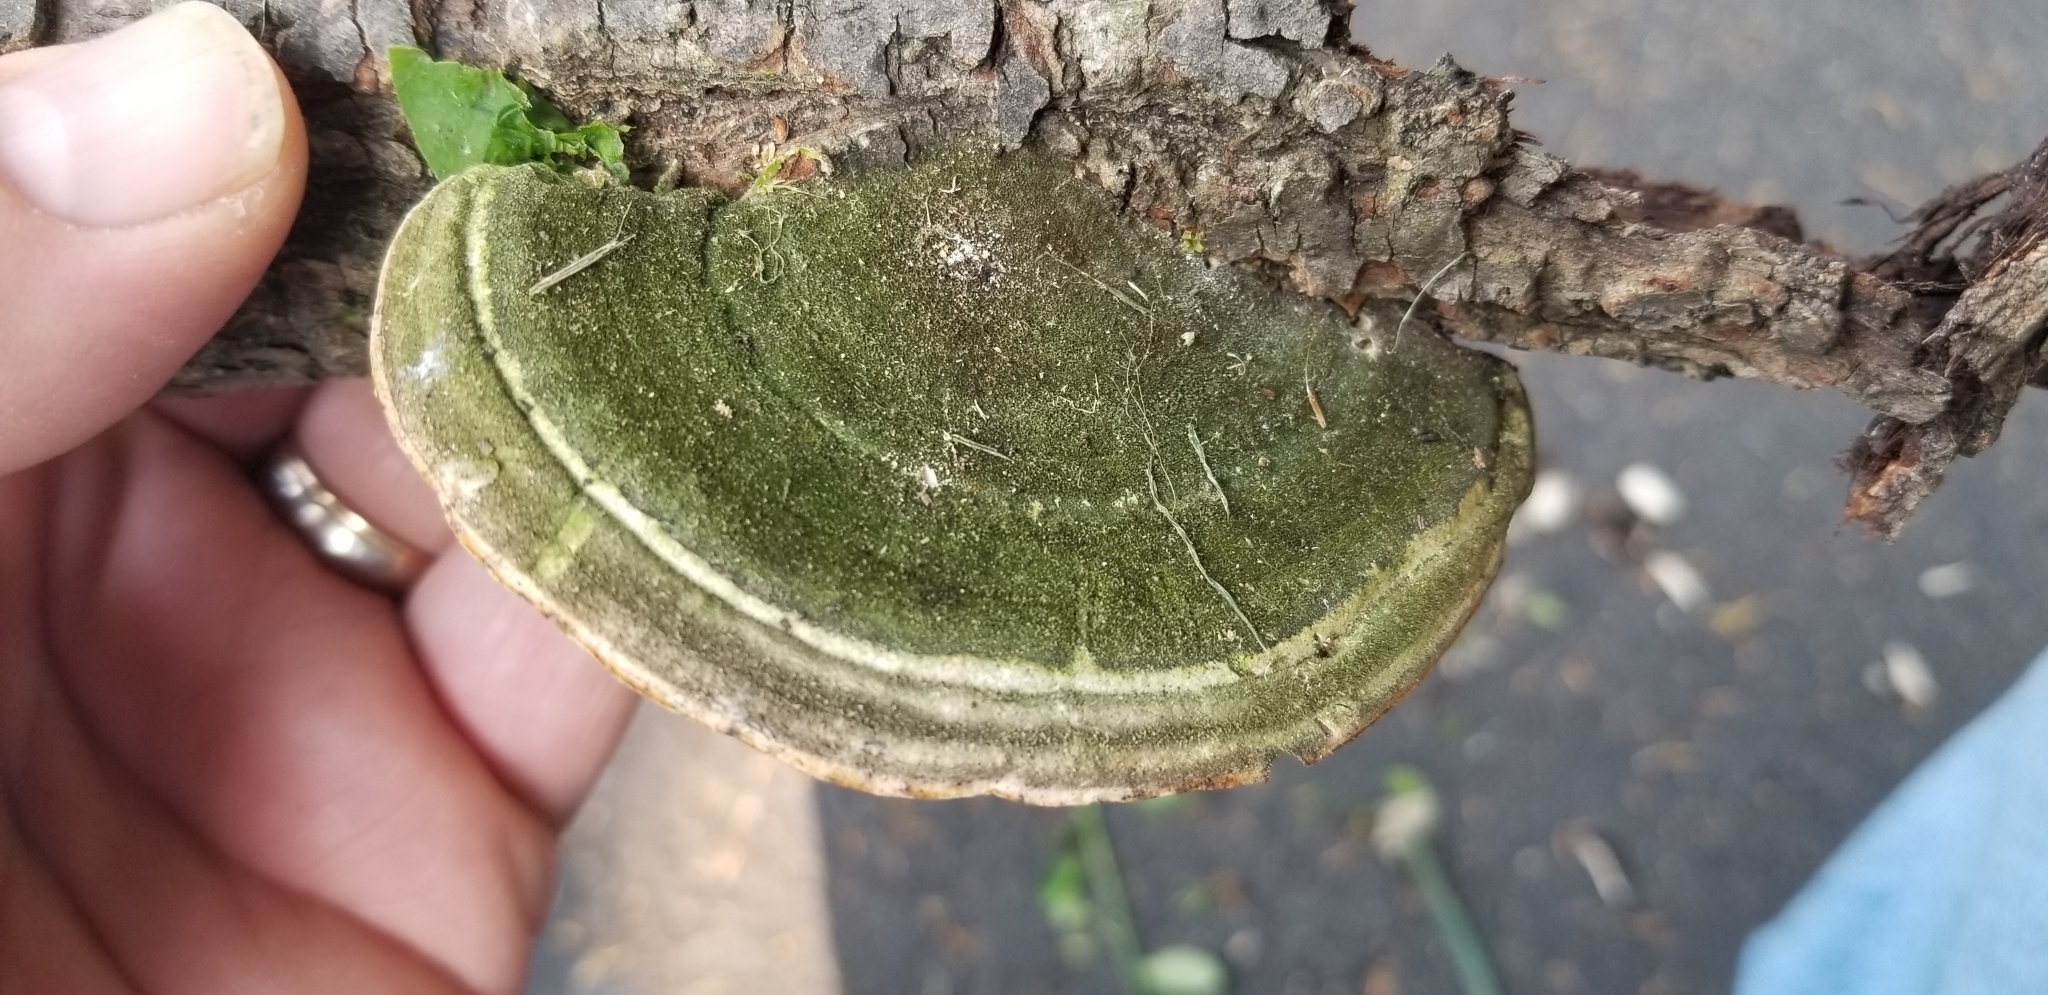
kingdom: Fungi
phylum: Basidiomycota
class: Agaricomycetes
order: Polyporales
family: Polyporaceae
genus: Daedaleopsis
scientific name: Daedaleopsis confragosa
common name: Blushing bracket
